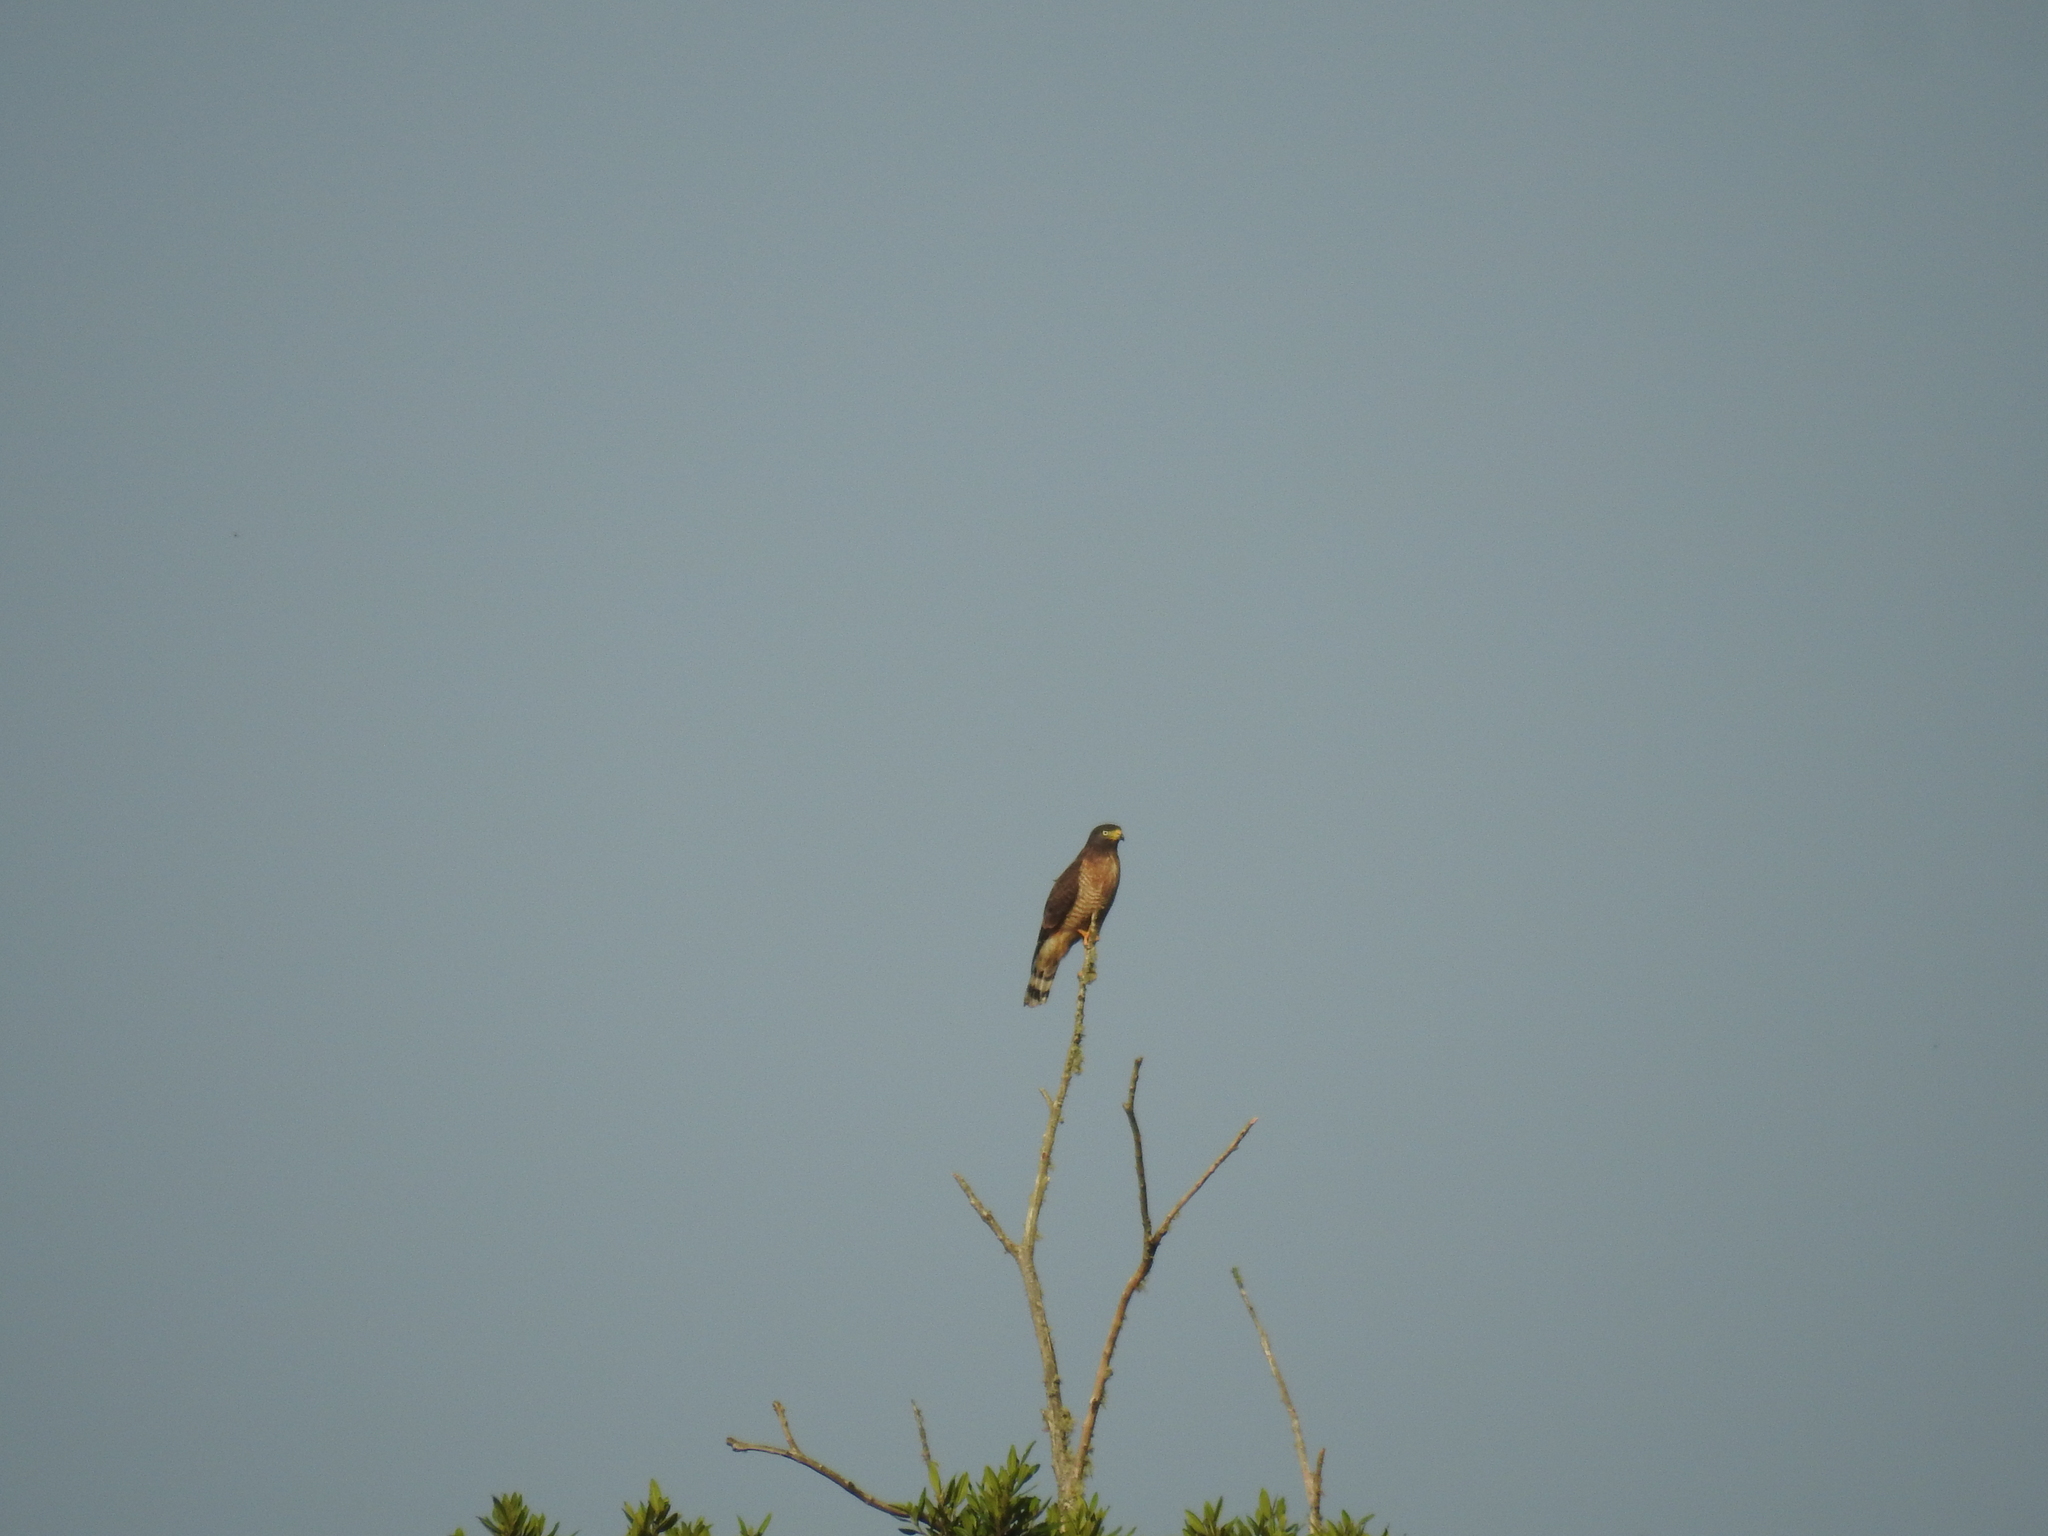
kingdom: Animalia
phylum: Chordata
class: Aves
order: Accipitriformes
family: Accipitridae
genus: Rupornis
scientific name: Rupornis magnirostris
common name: Roadside hawk
